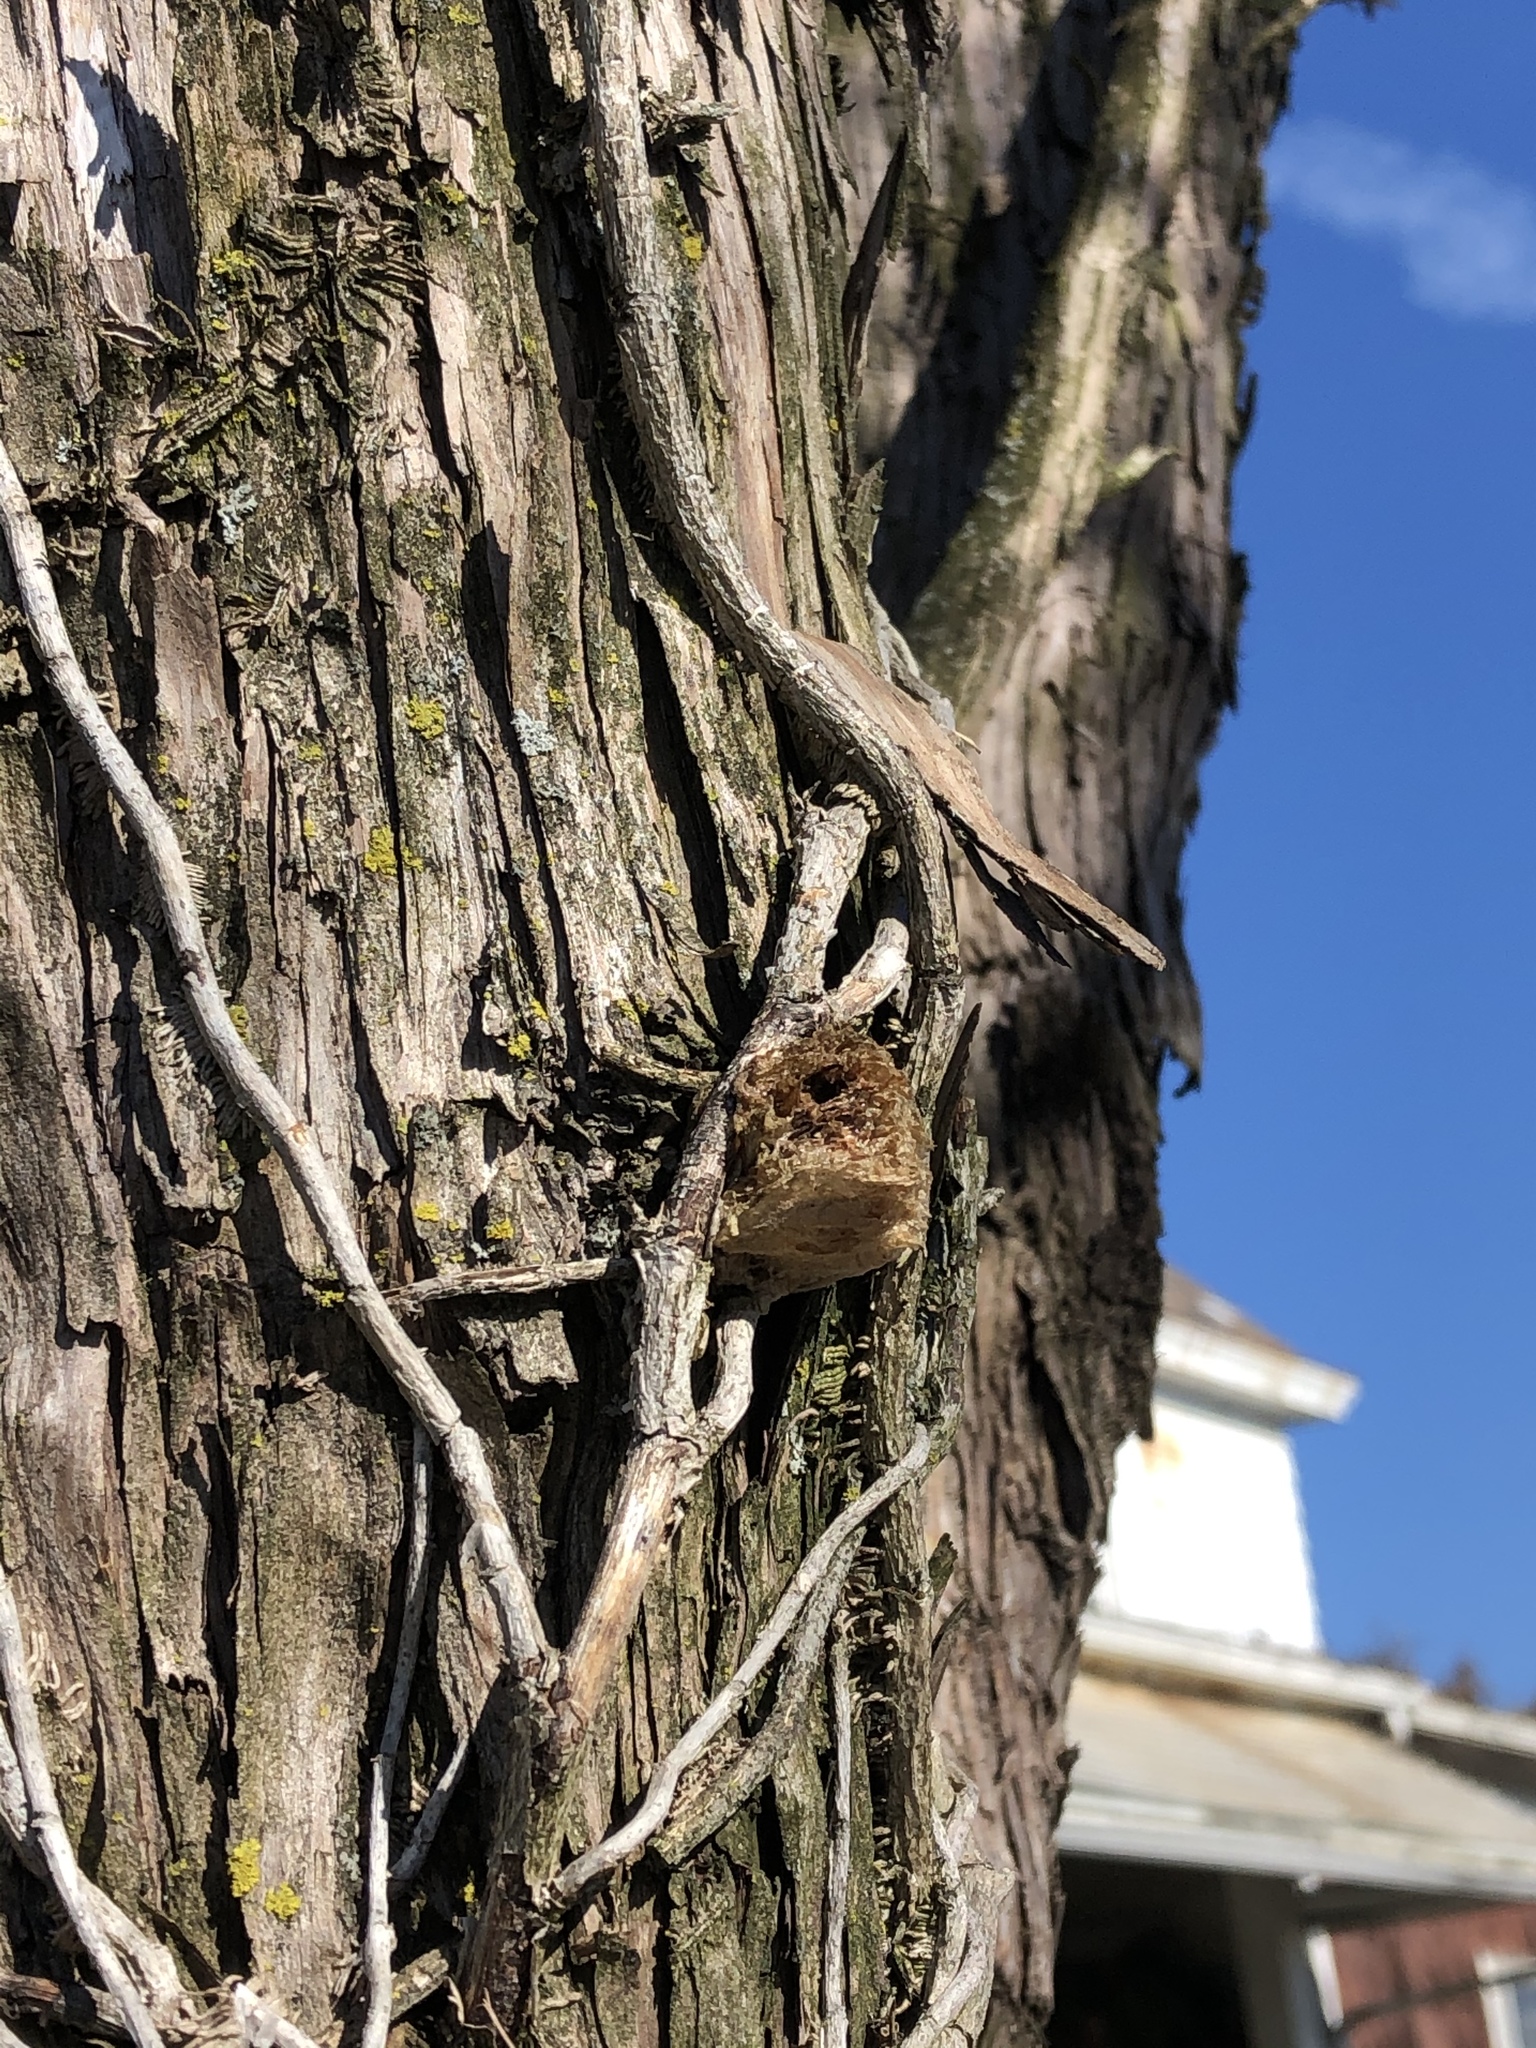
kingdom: Animalia
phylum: Arthropoda
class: Insecta
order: Mantodea
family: Mantidae
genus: Tenodera
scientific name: Tenodera sinensis
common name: Chinese mantis
